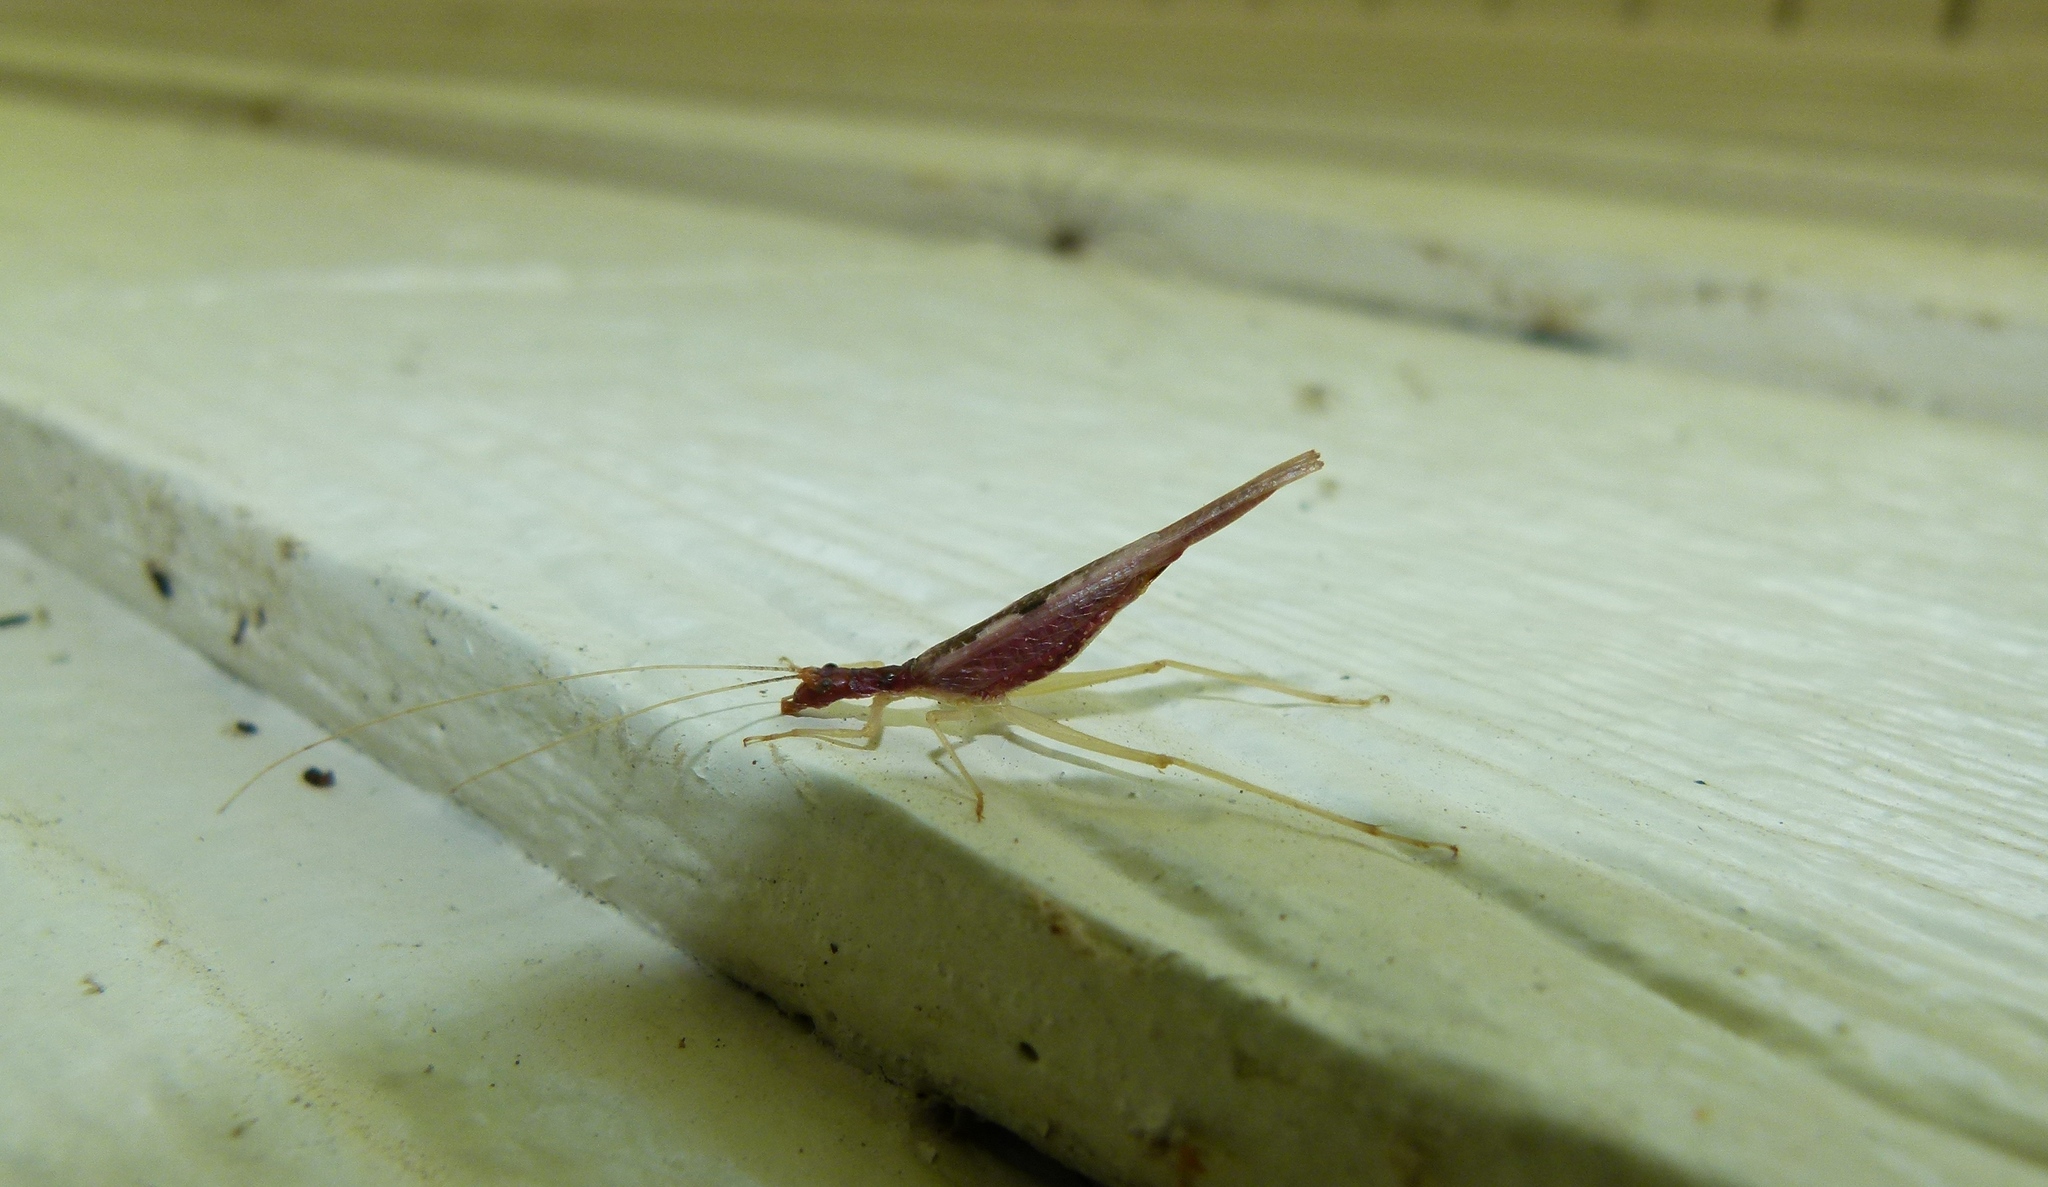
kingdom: Animalia
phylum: Arthropoda
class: Insecta
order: Orthoptera
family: Gryllidae
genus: Neoxabea
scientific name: Neoxabea bipunctata
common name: Two-spotted tree cricket
